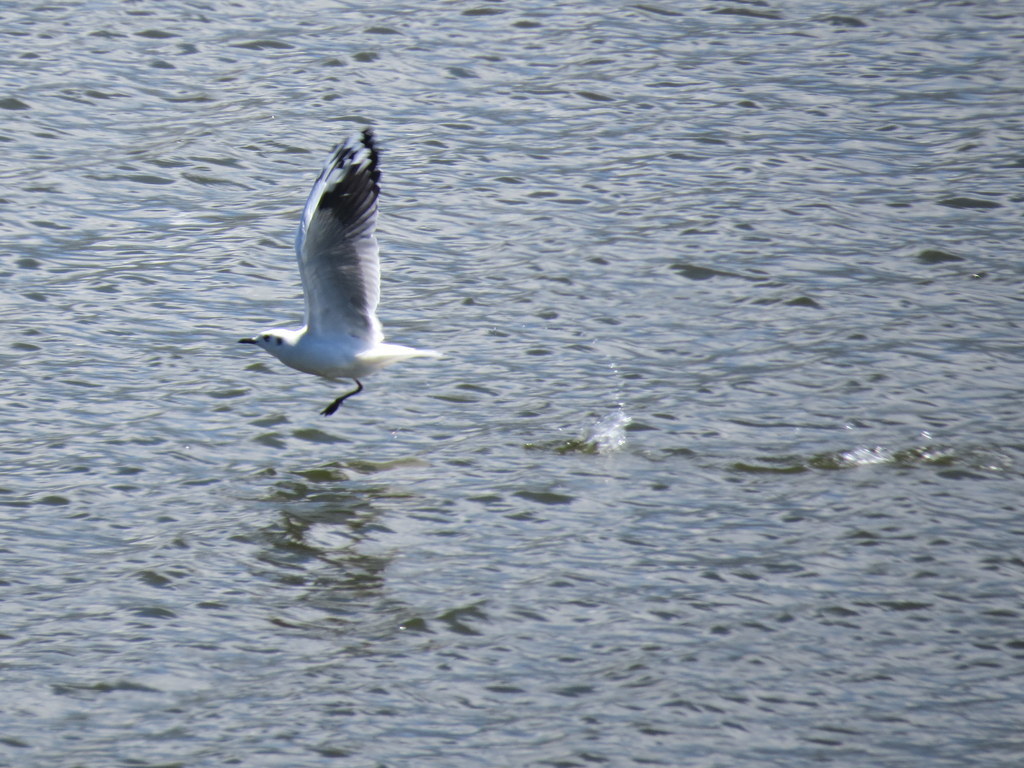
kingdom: Animalia
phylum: Chordata
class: Aves
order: Charadriiformes
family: Laridae
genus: Chroicocephalus
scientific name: Chroicocephalus serranus
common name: Andean gull
